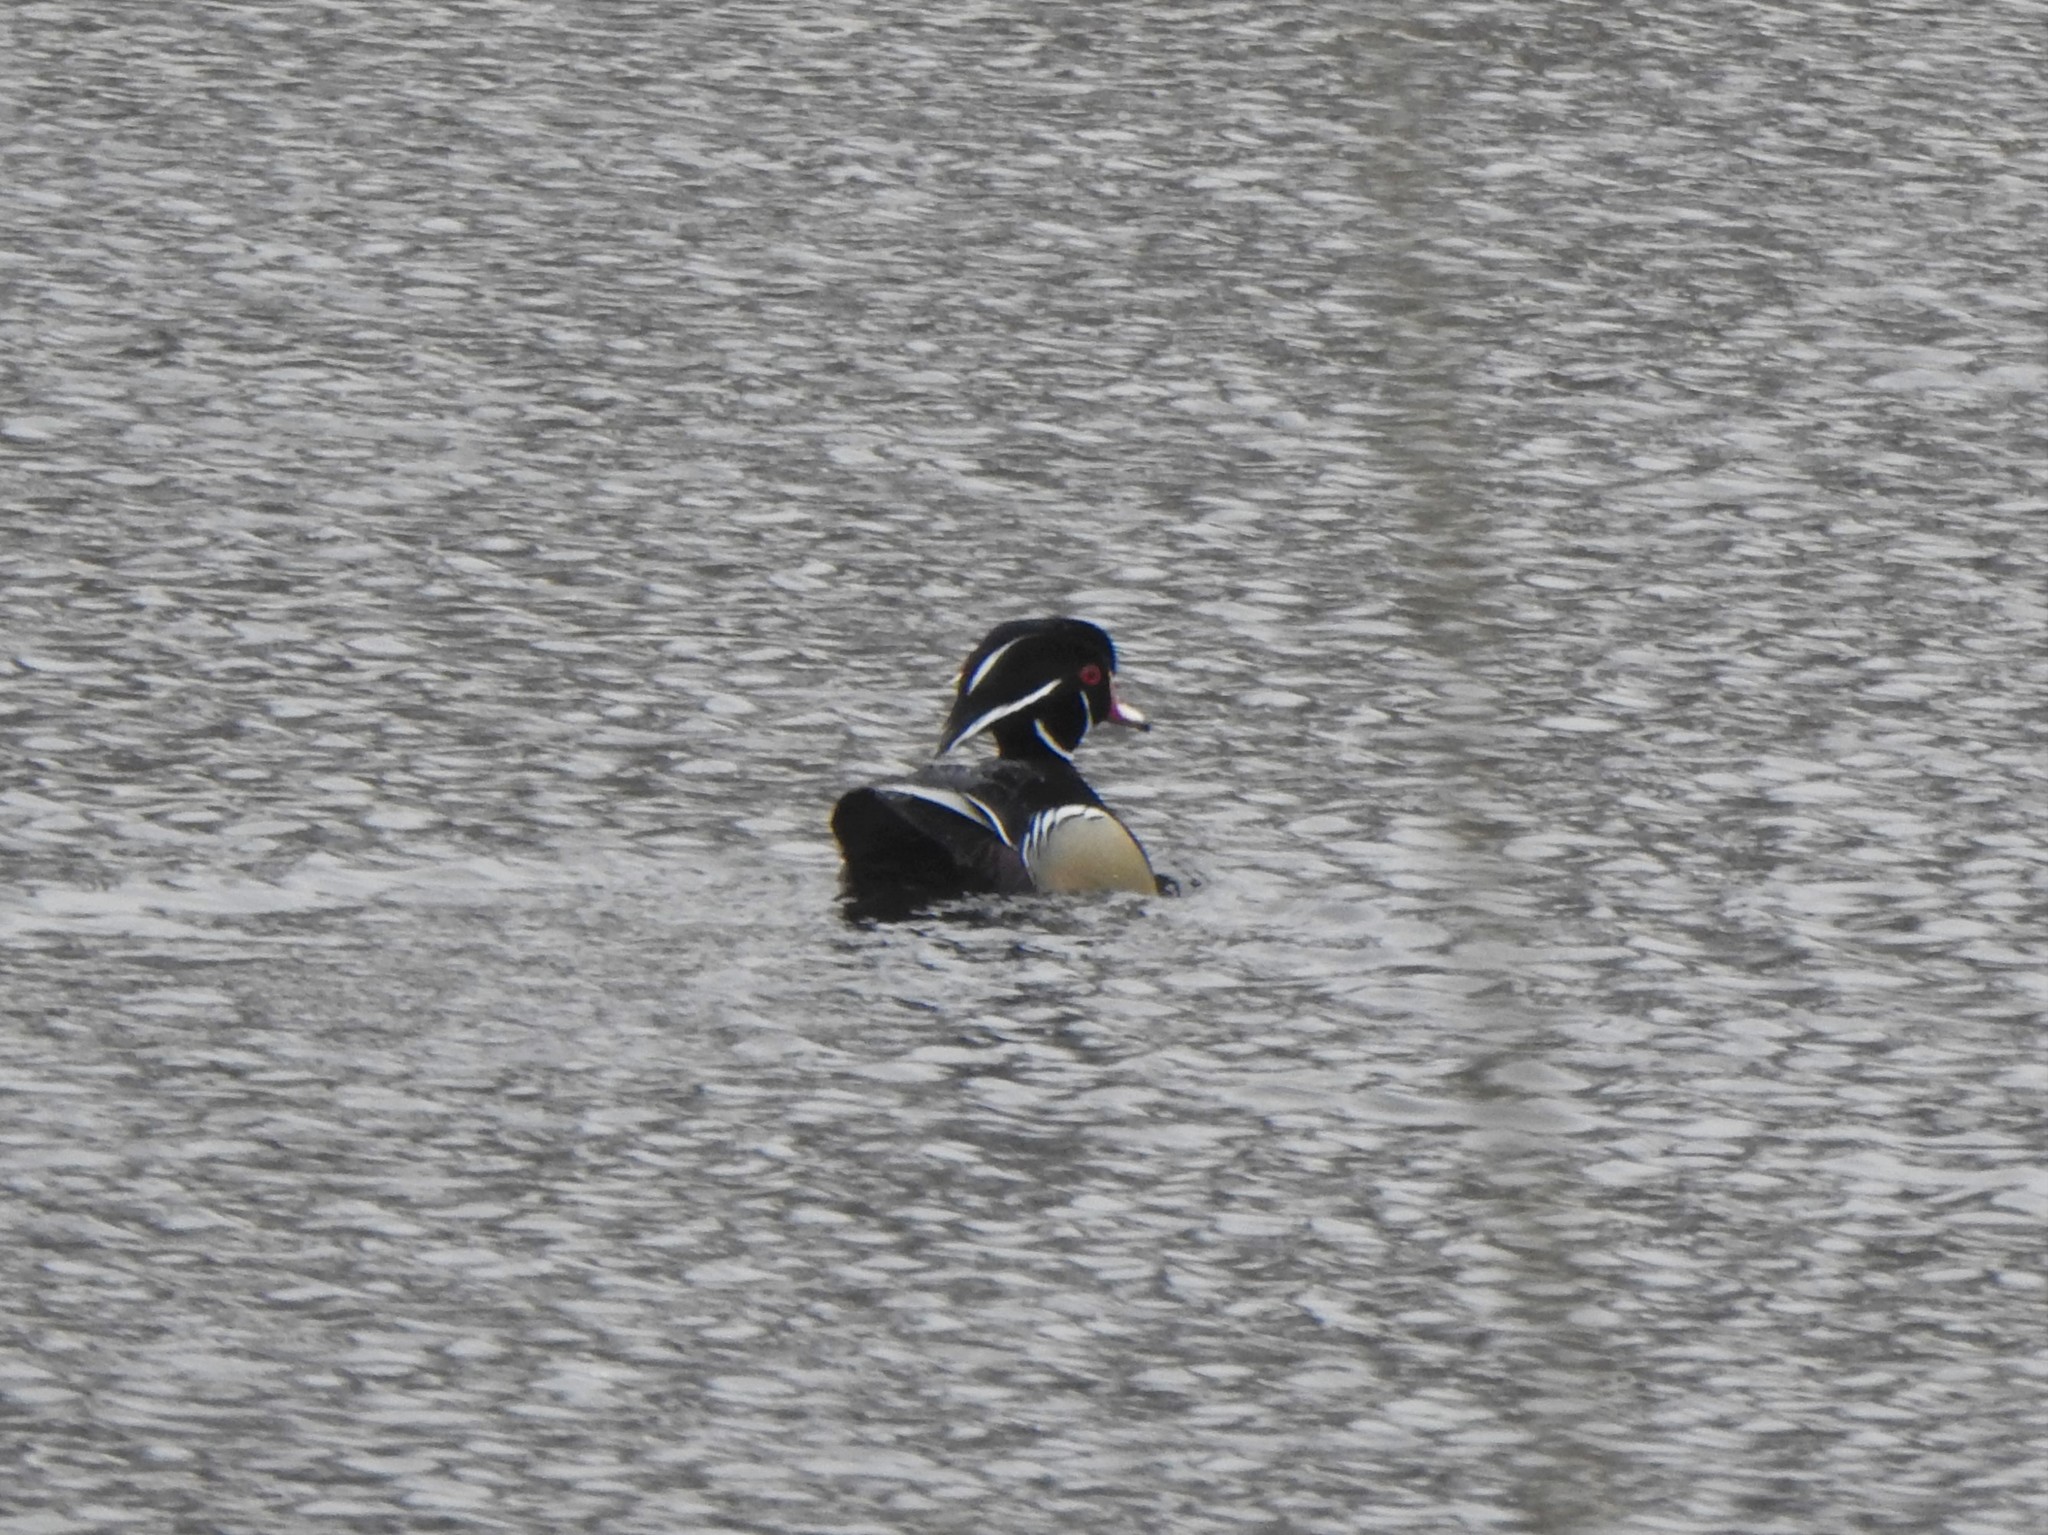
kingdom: Animalia
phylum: Chordata
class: Aves
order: Anseriformes
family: Anatidae
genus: Aix
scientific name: Aix sponsa
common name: Wood duck
